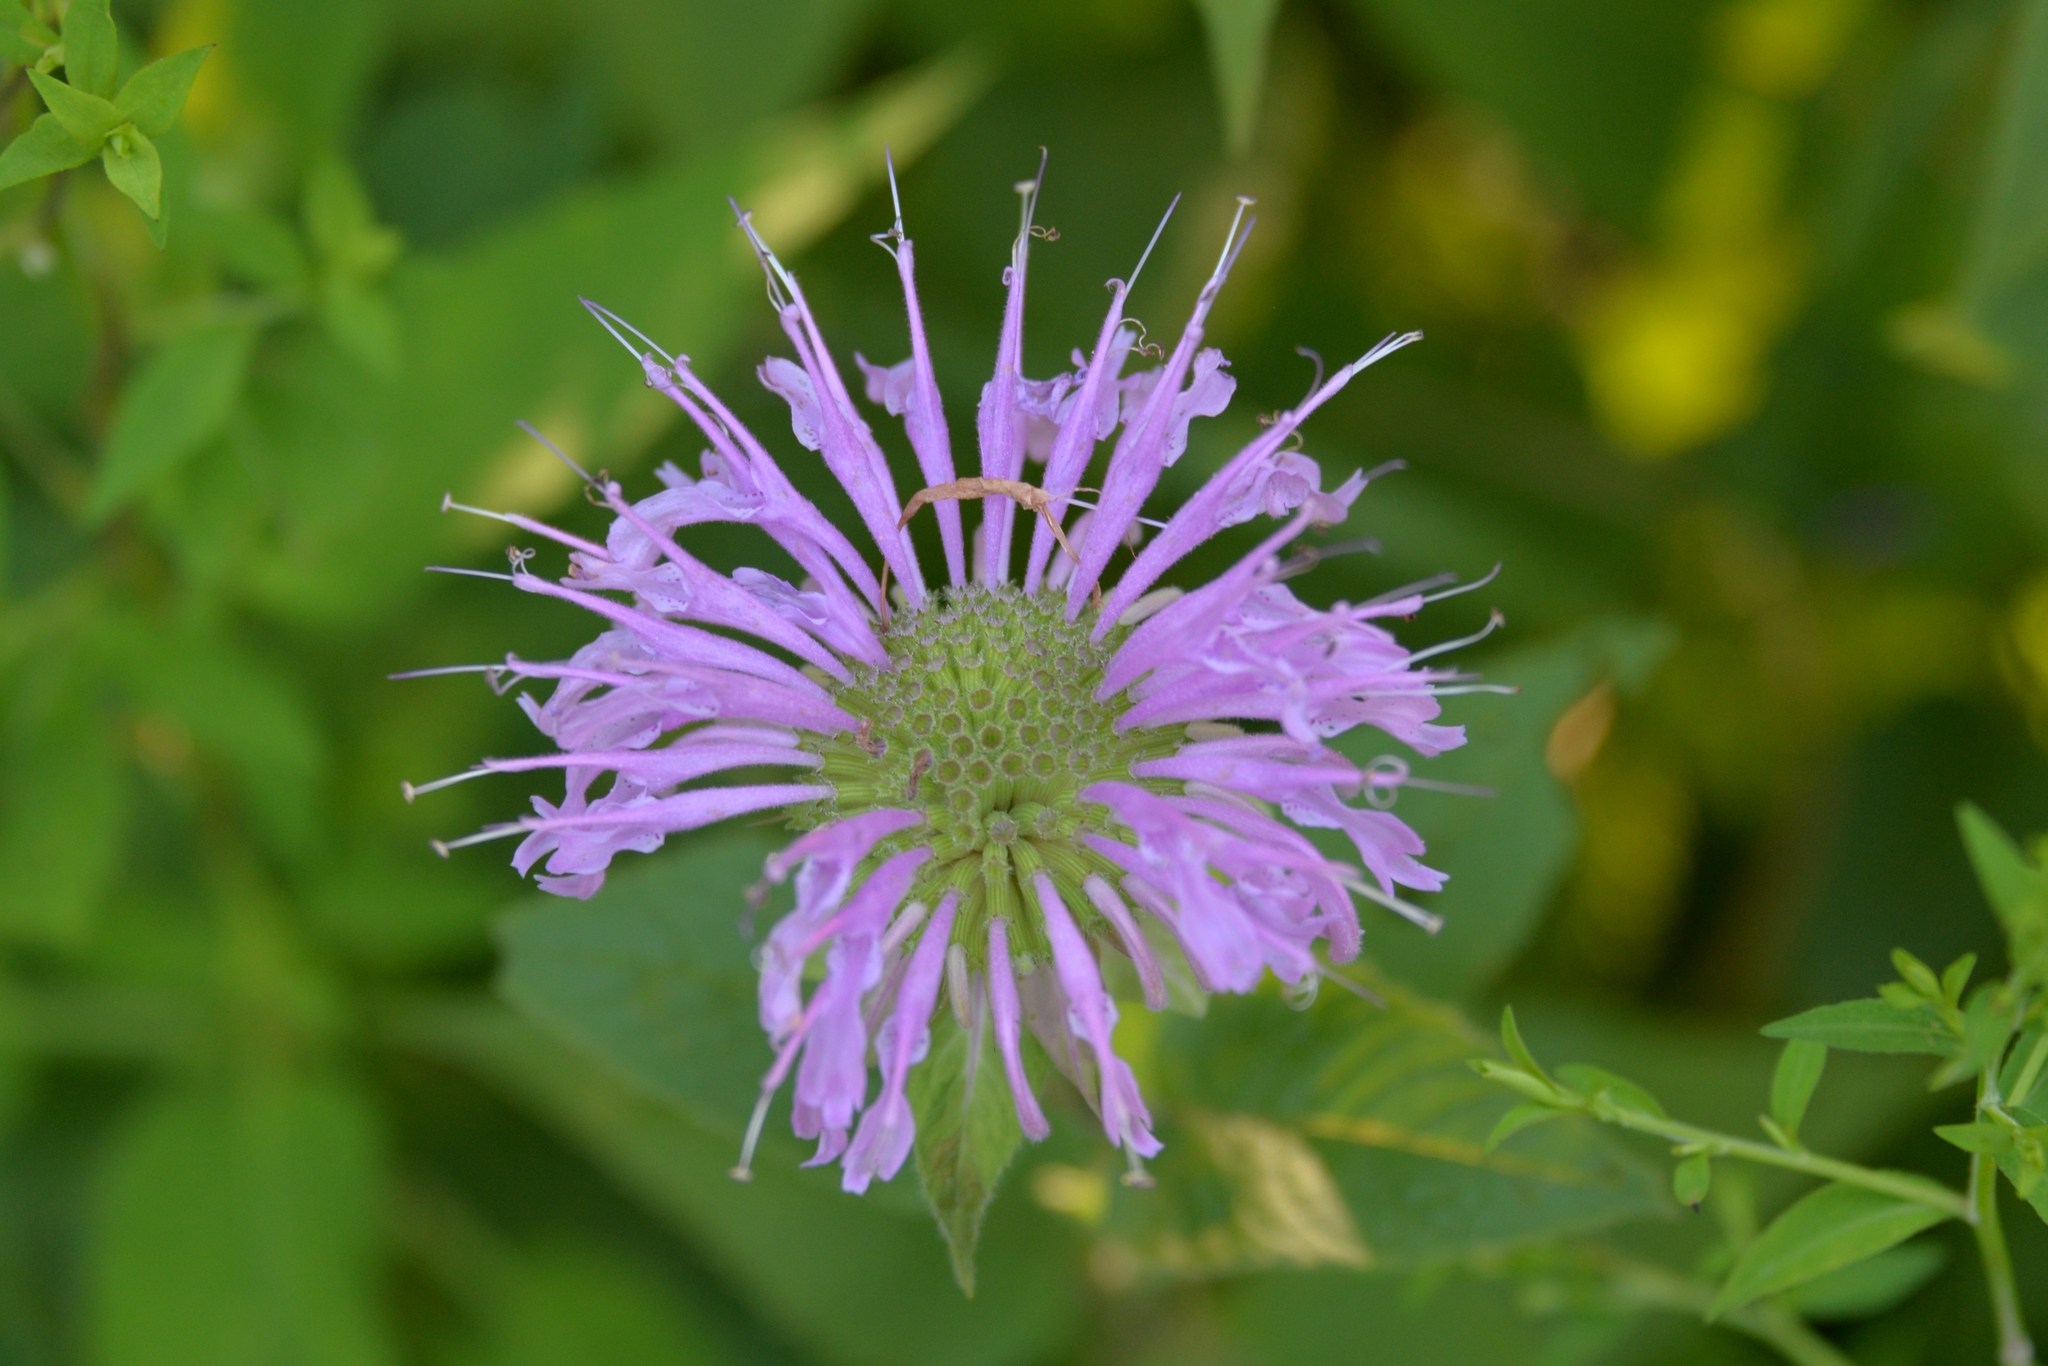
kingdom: Plantae
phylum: Tracheophyta
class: Magnoliopsida
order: Lamiales
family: Lamiaceae
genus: Monarda
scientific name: Monarda fistulosa
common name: Purple beebalm
